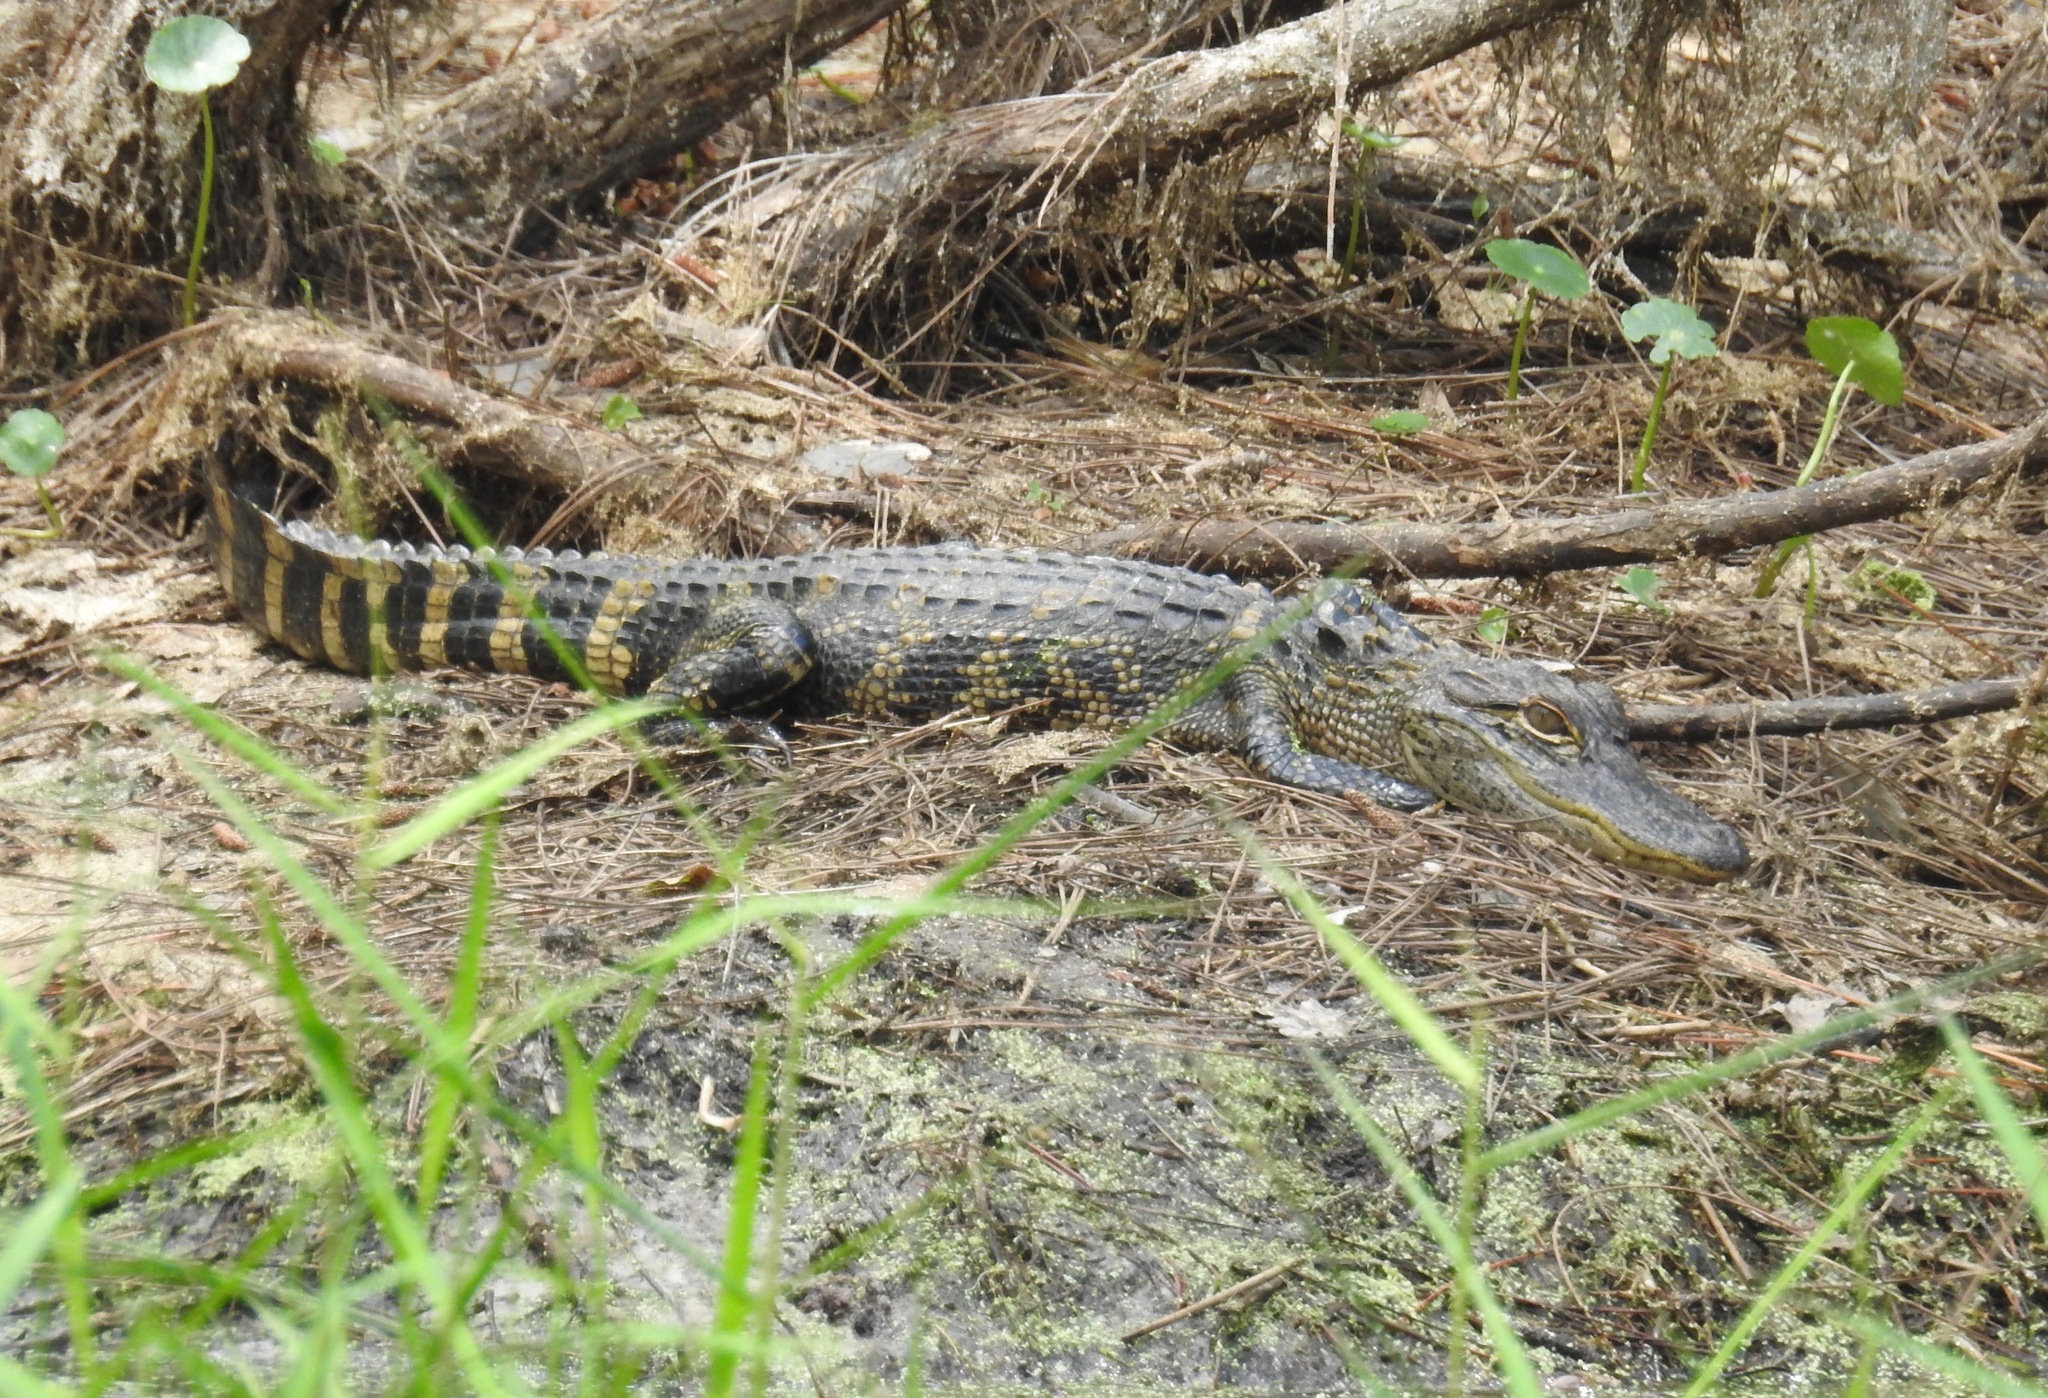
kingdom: Animalia
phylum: Chordata
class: Crocodylia
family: Alligatoridae
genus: Alligator
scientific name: Alligator mississippiensis
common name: American alligator
